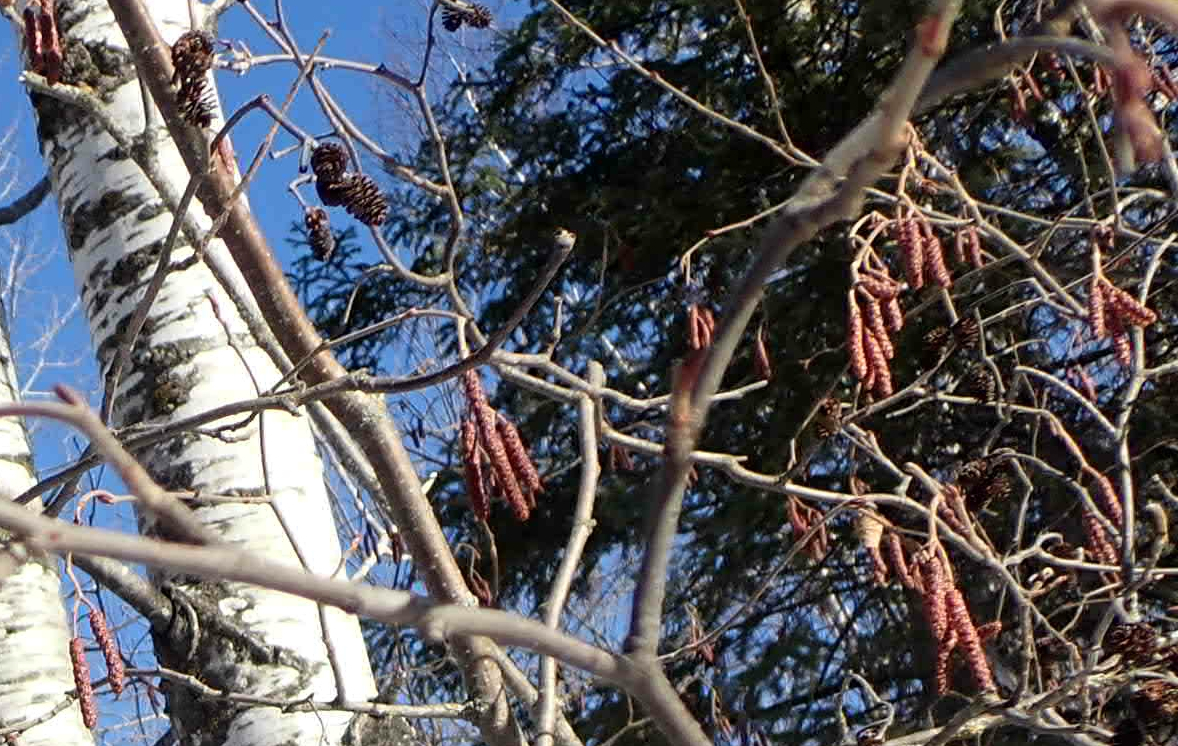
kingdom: Plantae
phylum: Tracheophyta
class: Magnoliopsida
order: Fagales
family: Betulaceae
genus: Alnus
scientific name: Alnus incana
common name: Grey alder
